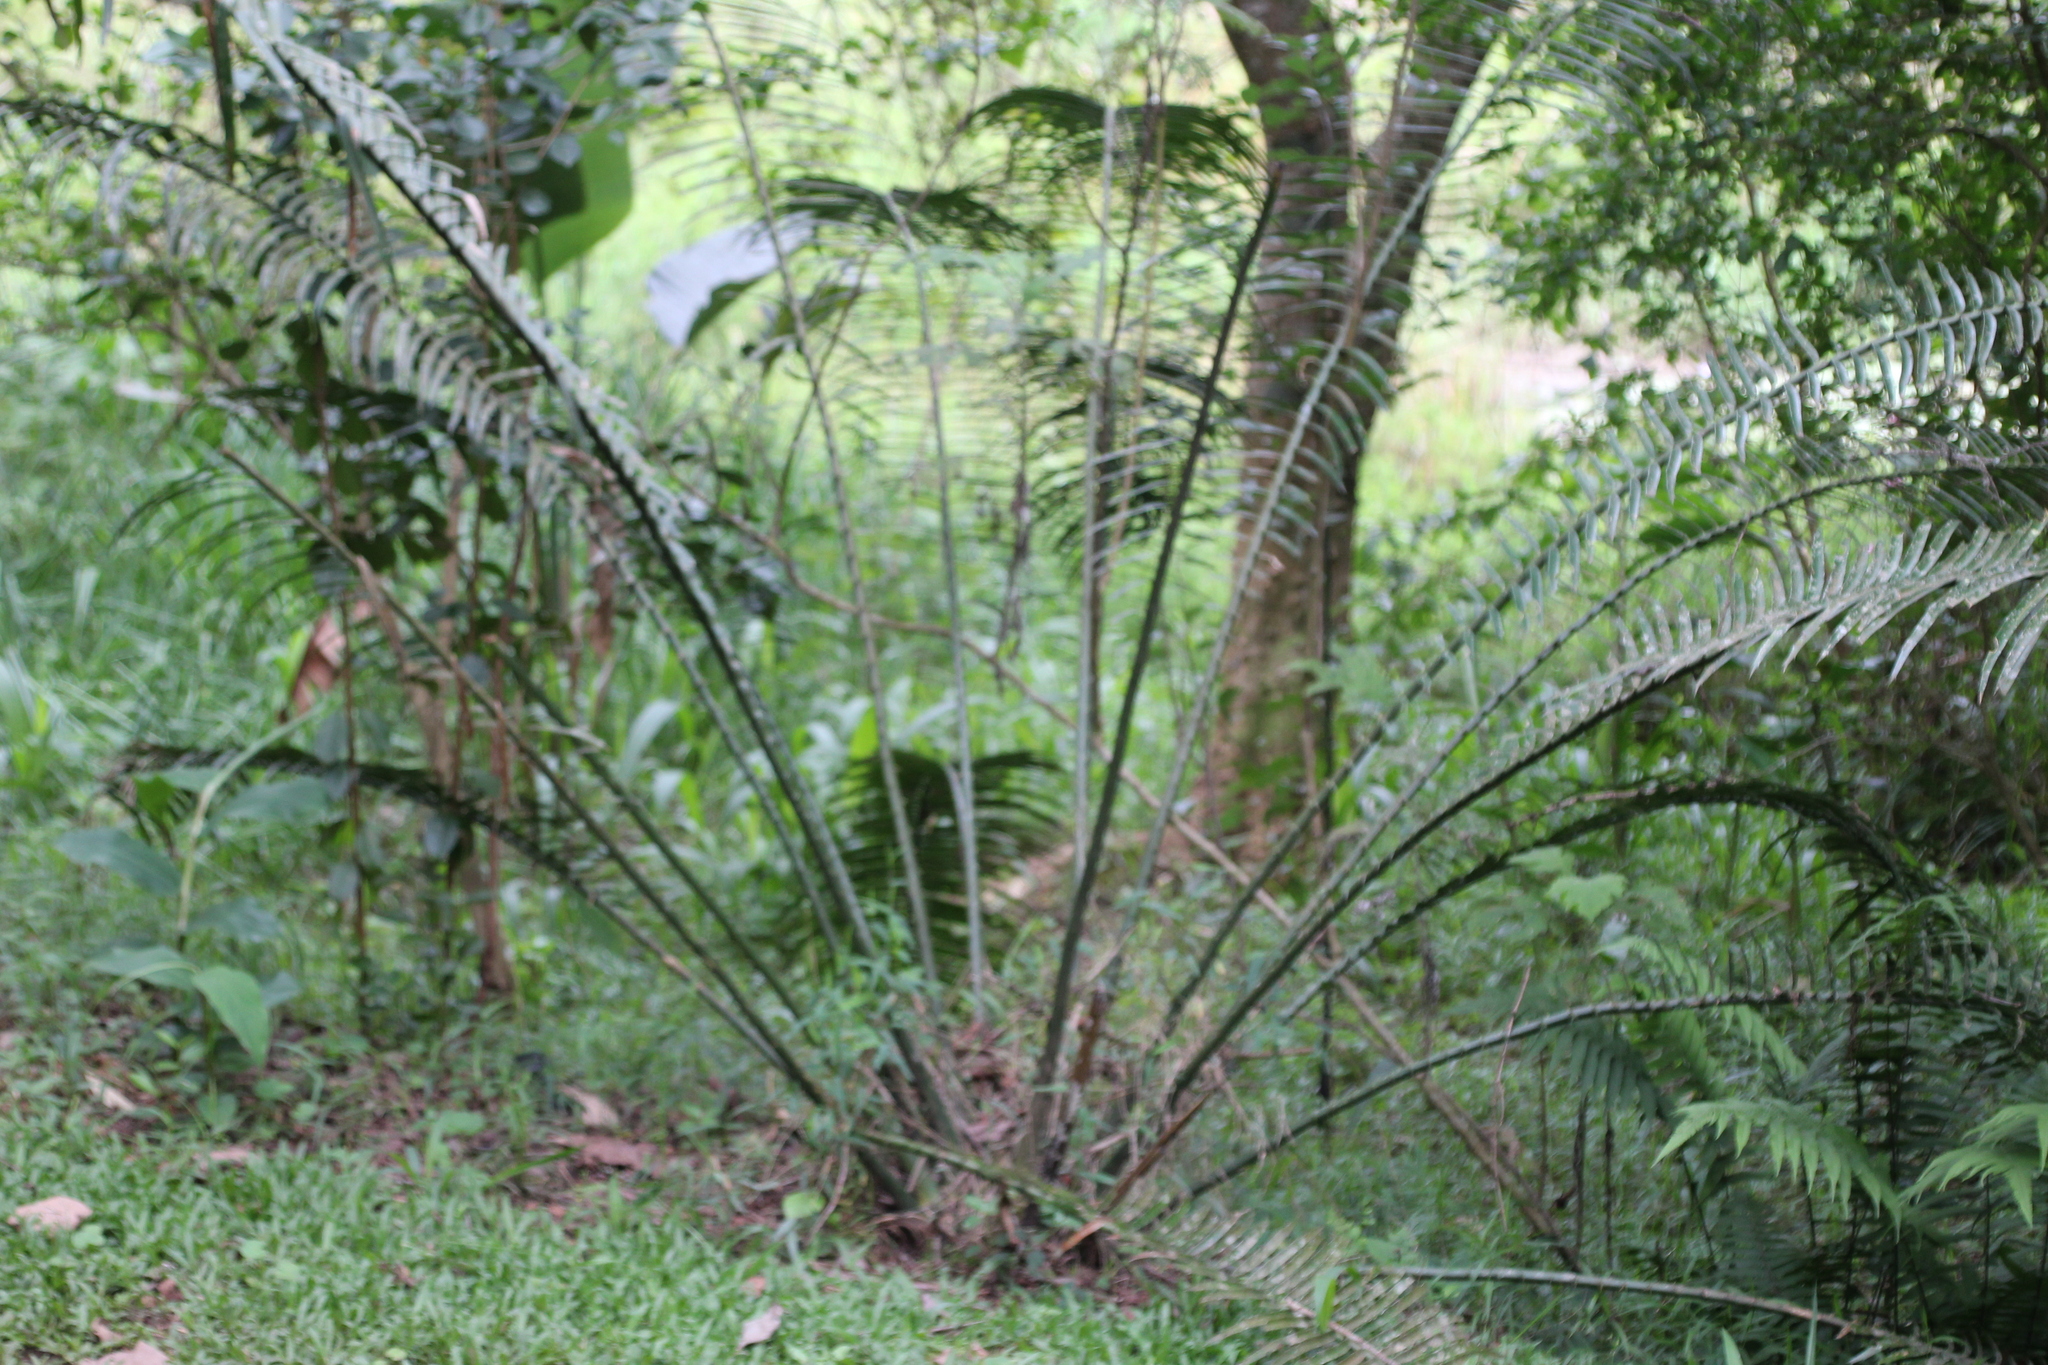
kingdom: Plantae
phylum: Tracheophyta
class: Cycadopsida
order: Cycadales
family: Zamiaceae
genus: Encephalartos
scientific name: Encephalartos villosus
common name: Poor man's cycad
